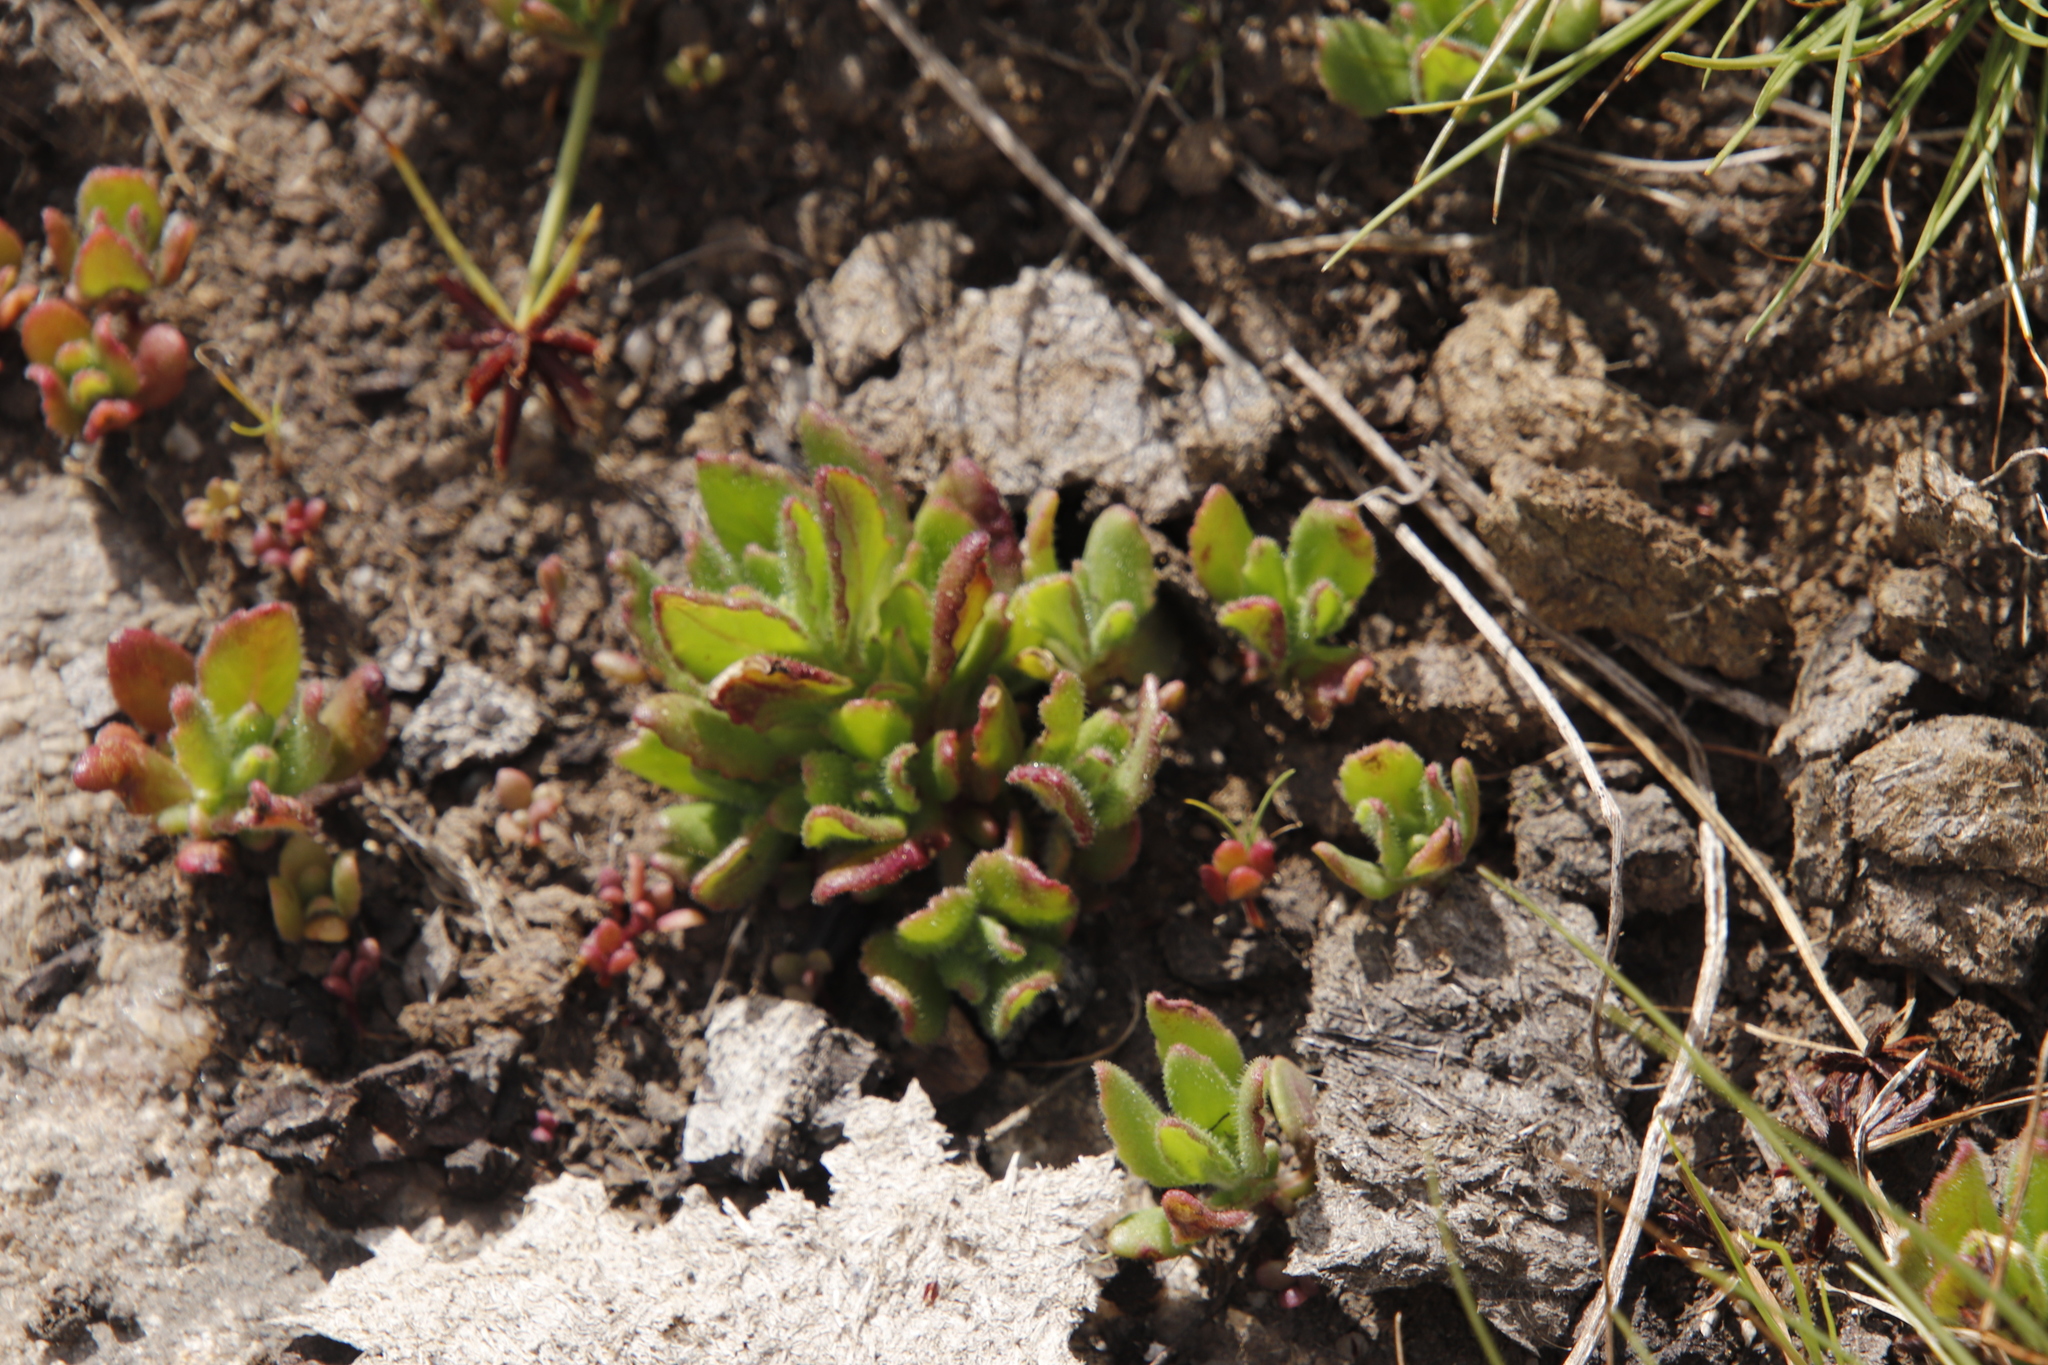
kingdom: Plantae
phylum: Tracheophyta
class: Magnoliopsida
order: Lamiales
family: Lamiaceae
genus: Aeollanthus
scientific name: Aeollanthus serpiculoides
